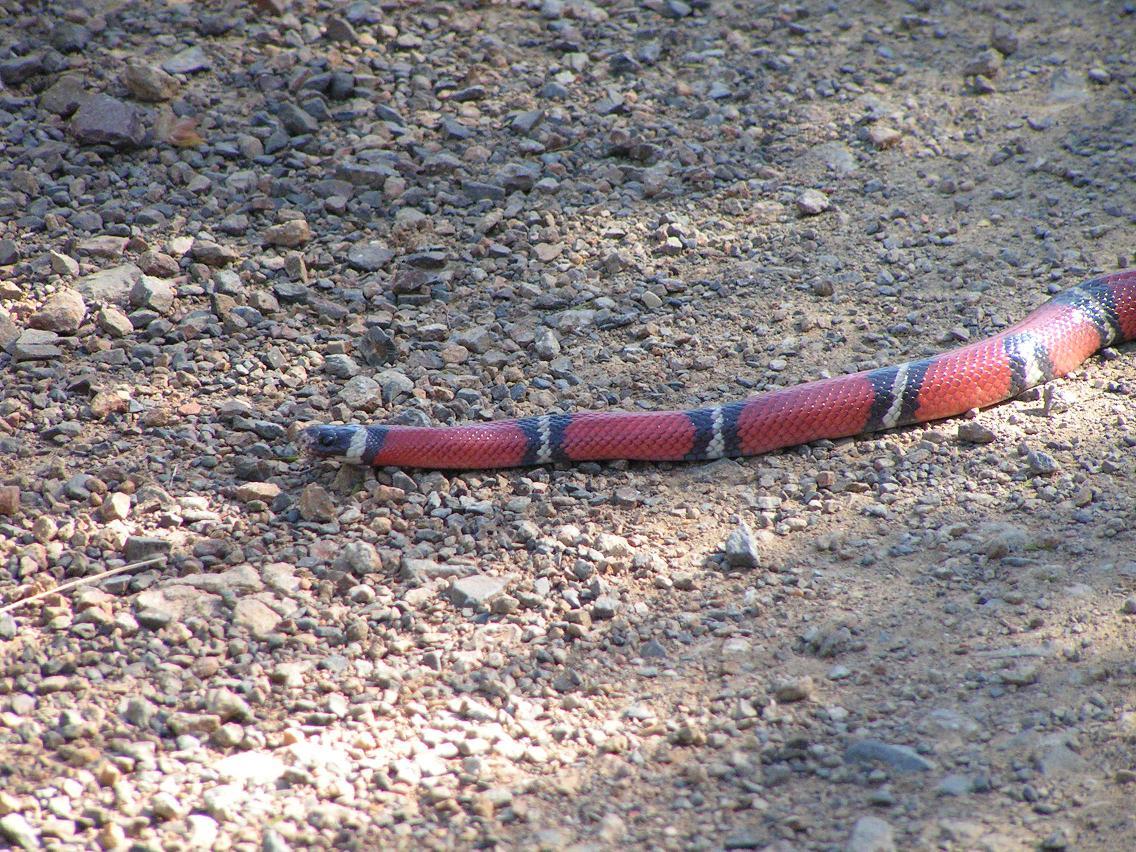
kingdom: Animalia
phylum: Chordata
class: Squamata
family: Colubridae
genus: Lampropeltis
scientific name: Lampropeltis polyzona
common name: Atlantic central american milksnake
